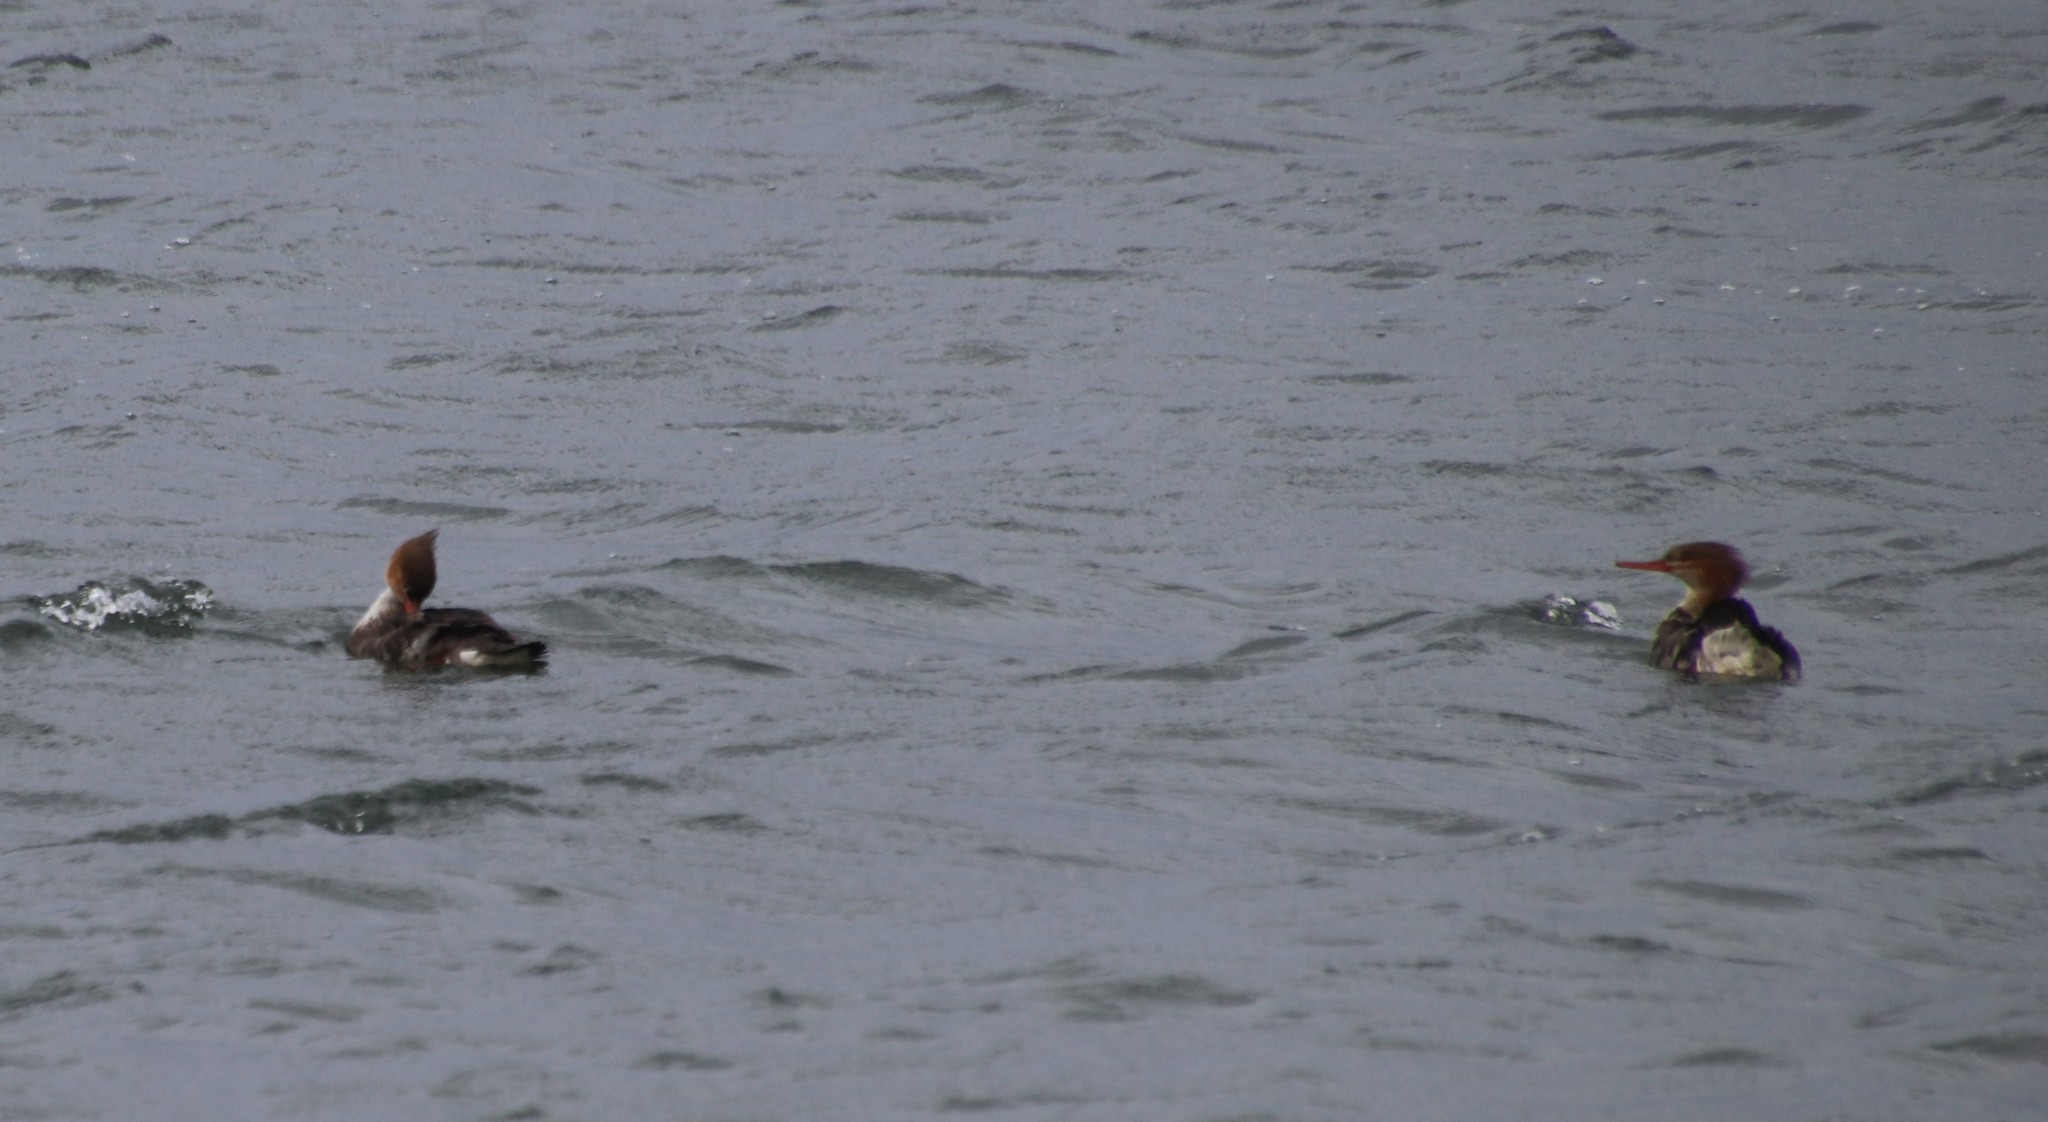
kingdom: Animalia
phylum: Chordata
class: Aves
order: Anseriformes
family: Anatidae
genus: Mergus
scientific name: Mergus serrator
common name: Red-breasted merganser
